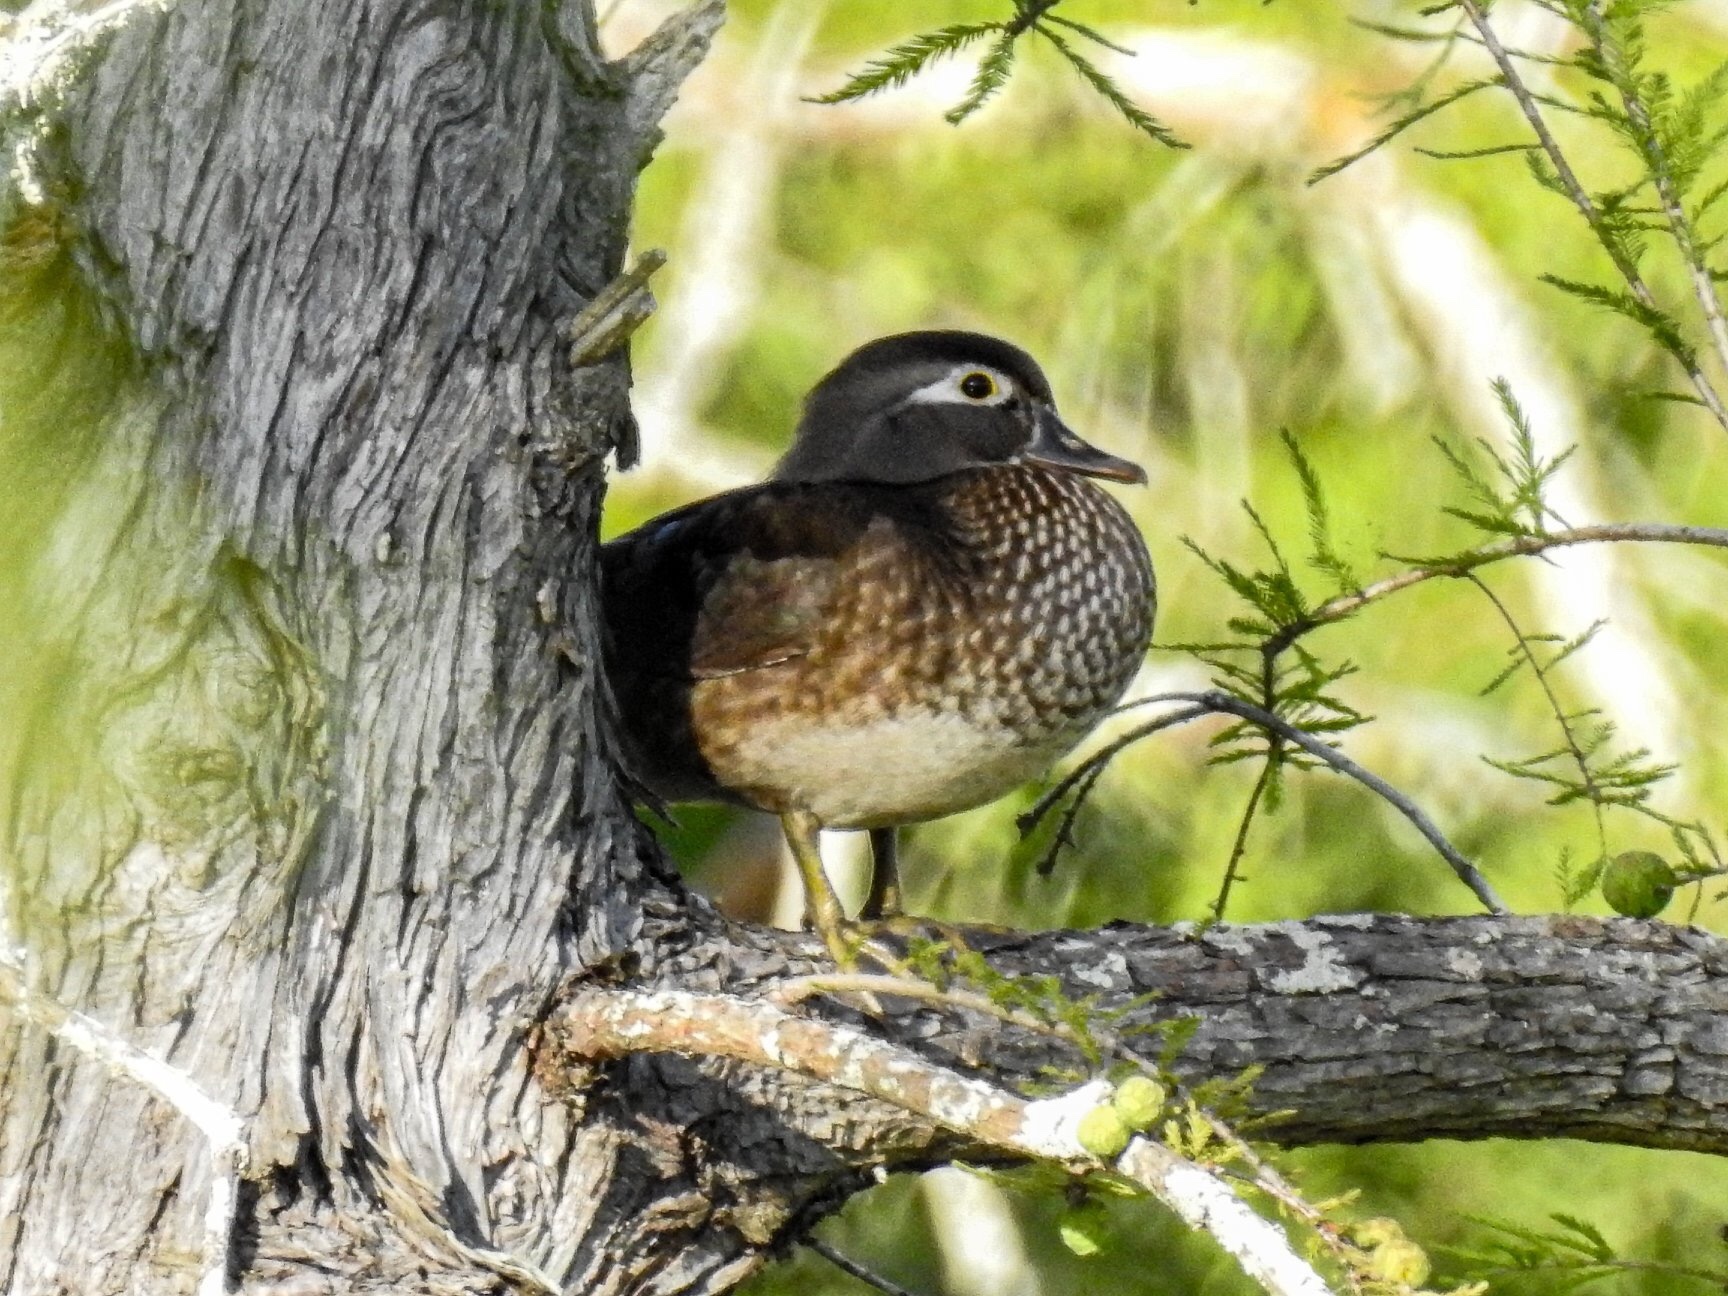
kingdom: Animalia
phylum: Chordata
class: Aves
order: Anseriformes
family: Anatidae
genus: Aix
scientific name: Aix sponsa
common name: Wood duck
